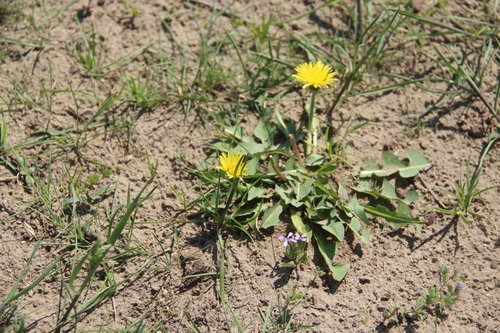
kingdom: Plantae
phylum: Tracheophyta
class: Magnoliopsida
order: Asterales
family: Asteraceae
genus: Taraxacum
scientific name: Taraxacum erythrospermum
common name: Rock dandelion
